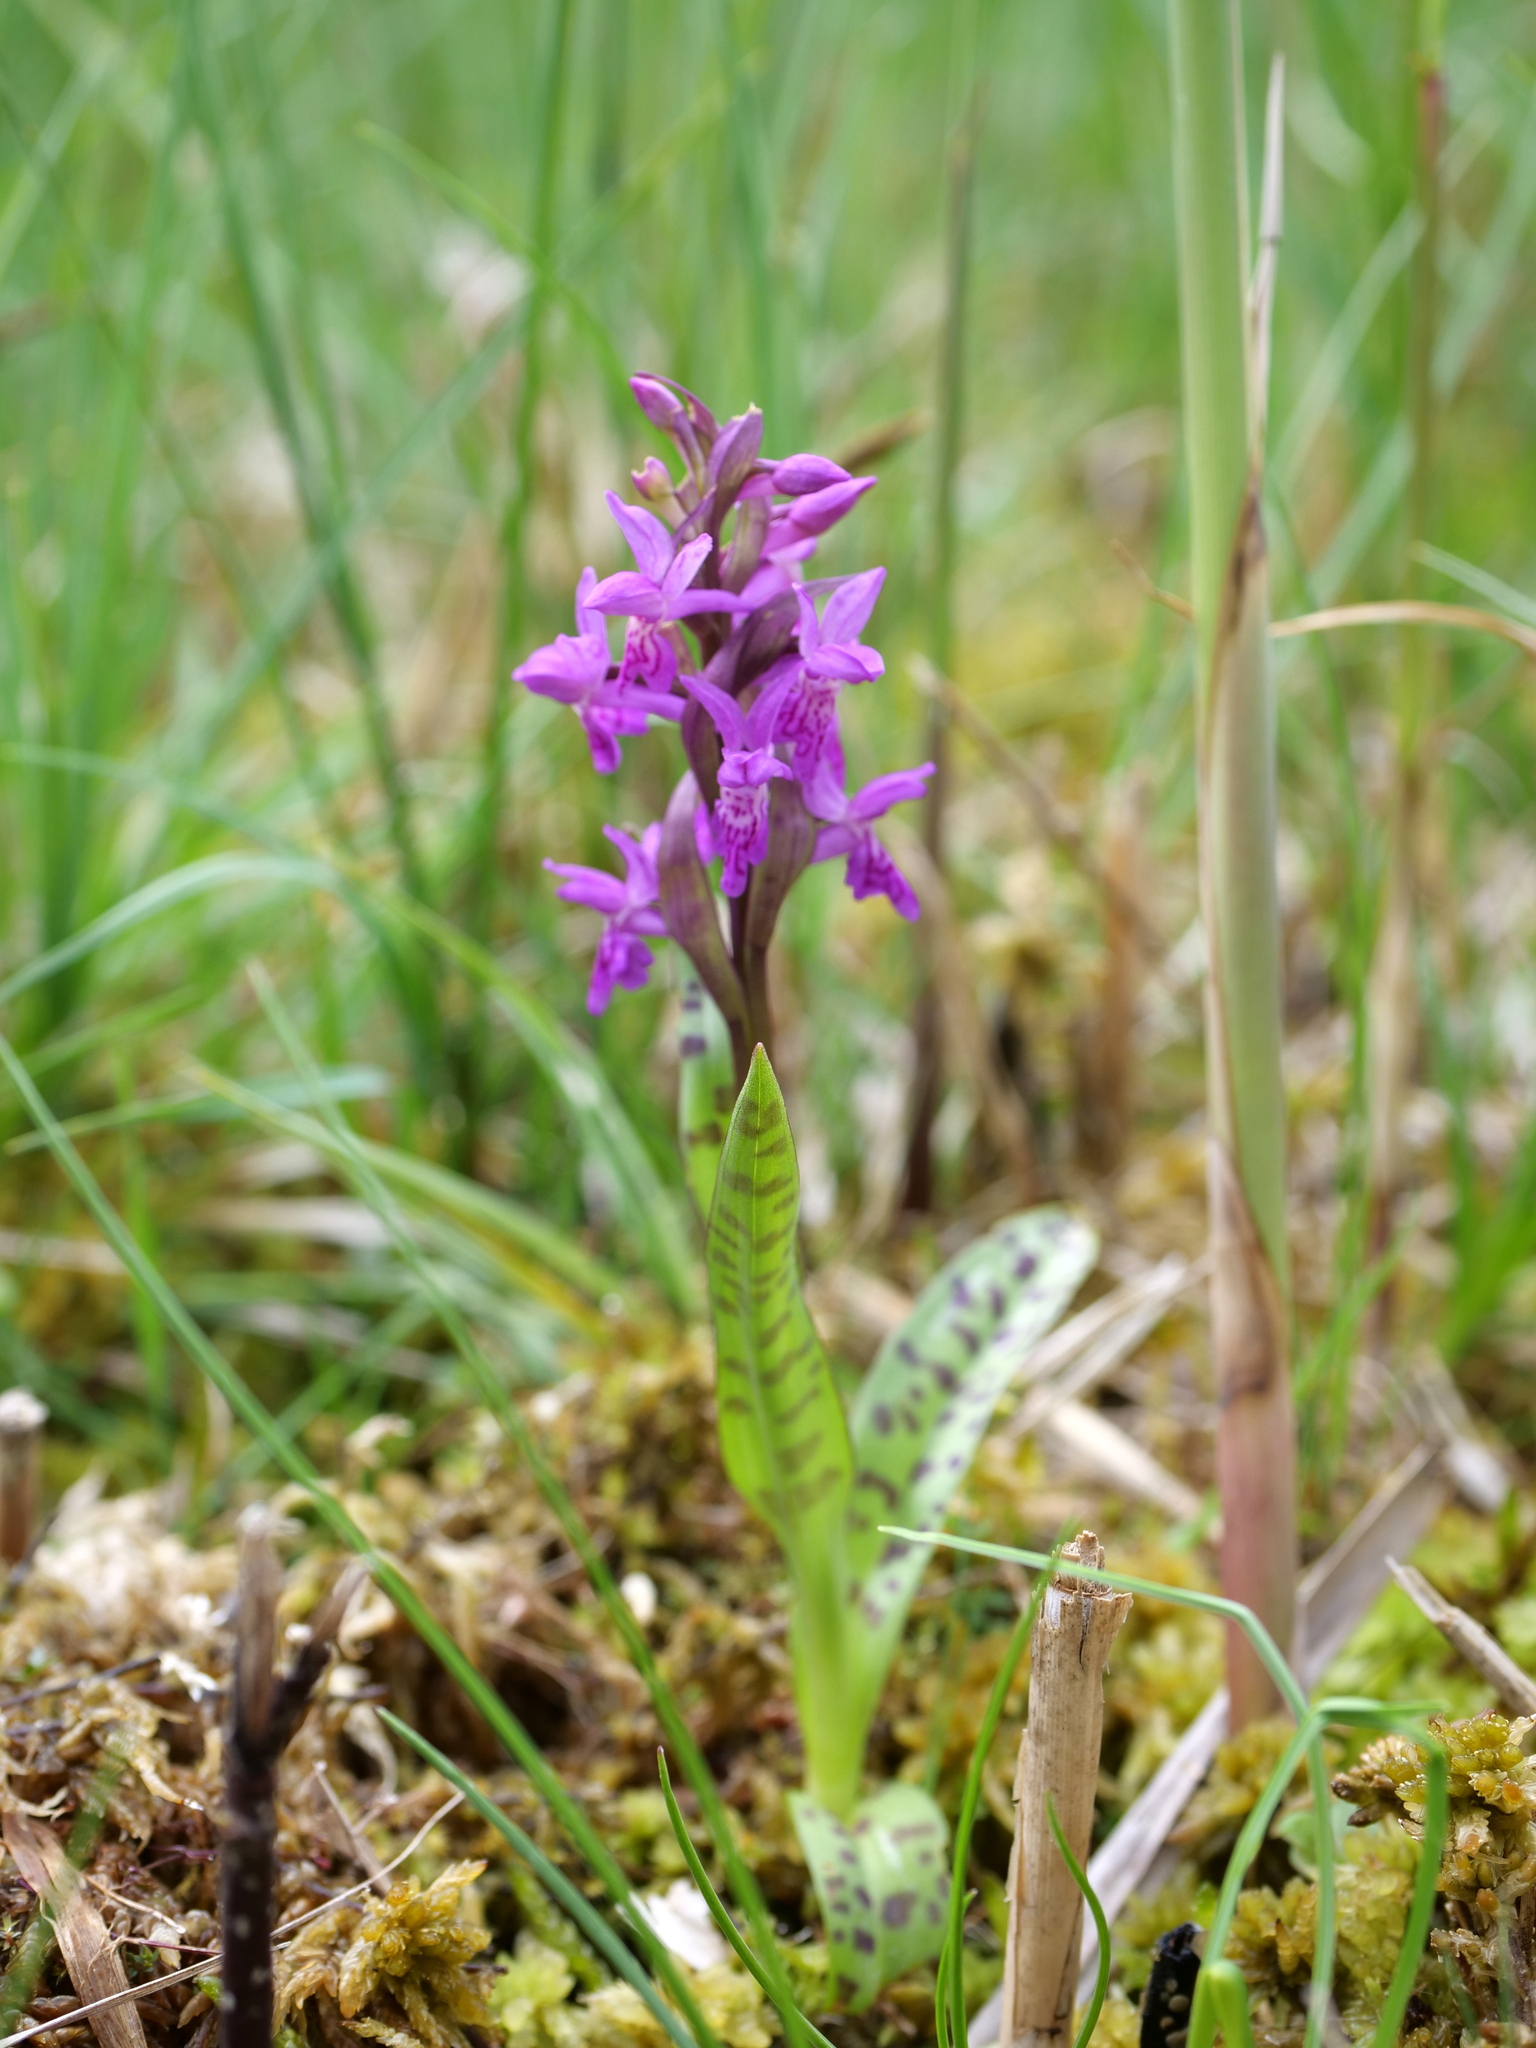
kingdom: Plantae
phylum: Tracheophyta
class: Liliopsida
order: Asparagales
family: Orchidaceae
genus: Dactylorhiza
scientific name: Dactylorhiza majalis
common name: Marsh orchid
